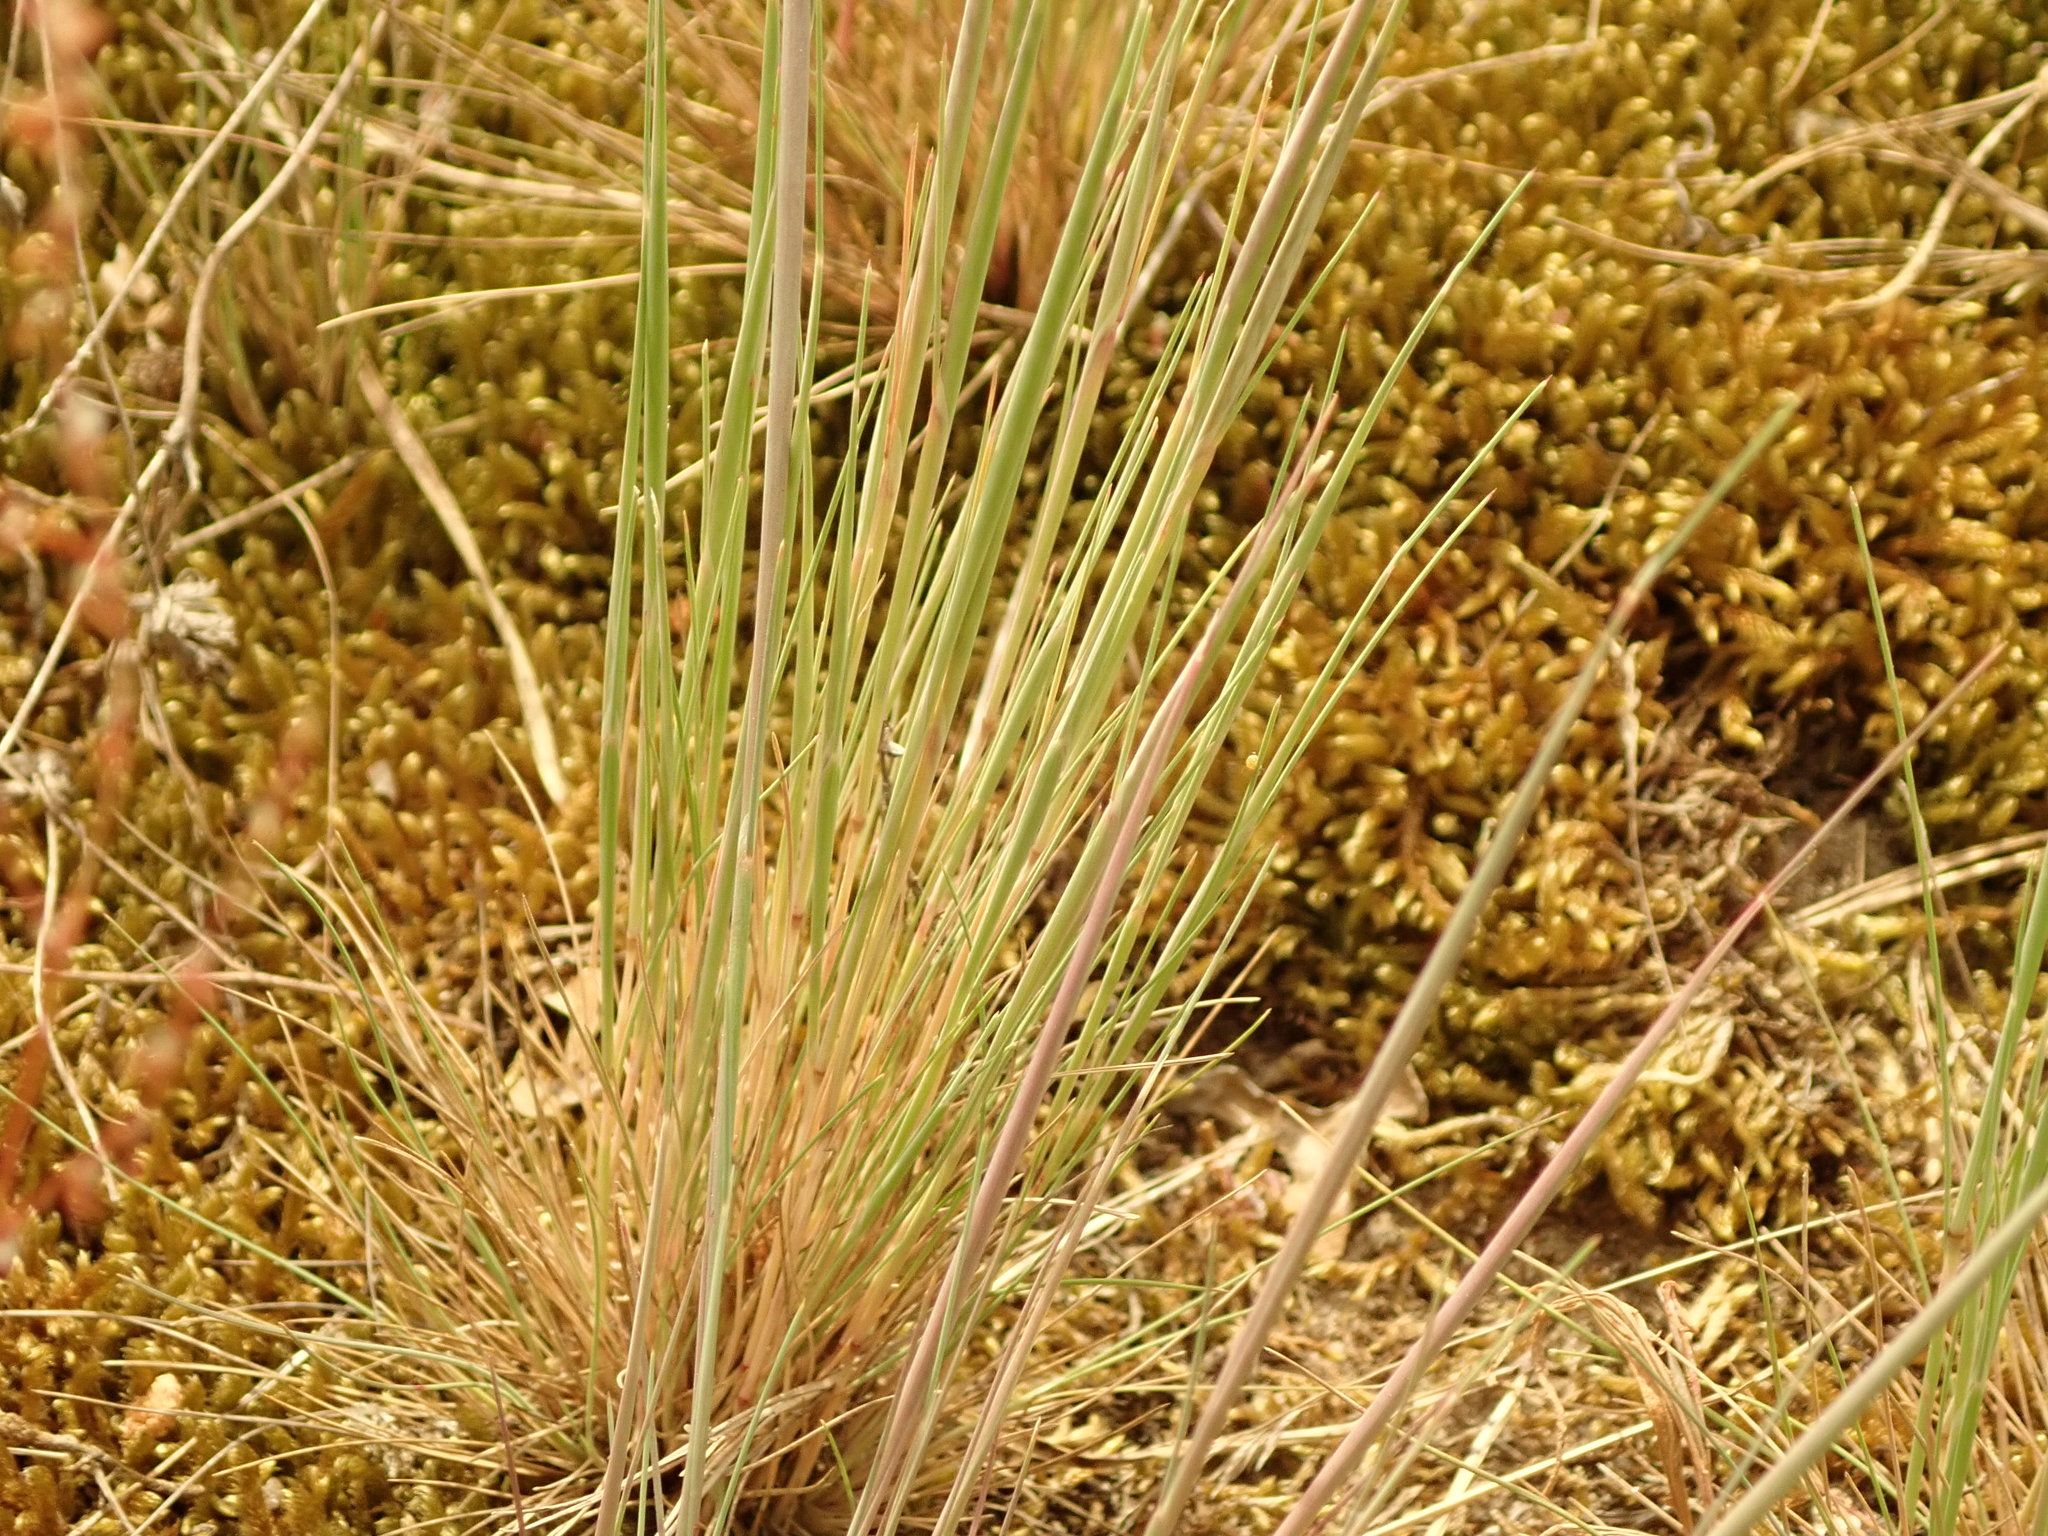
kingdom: Plantae
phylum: Tracheophyta
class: Liliopsida
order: Poales
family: Poaceae
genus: Corynephorus
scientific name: Corynephorus canescens
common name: Grey hair-grass
